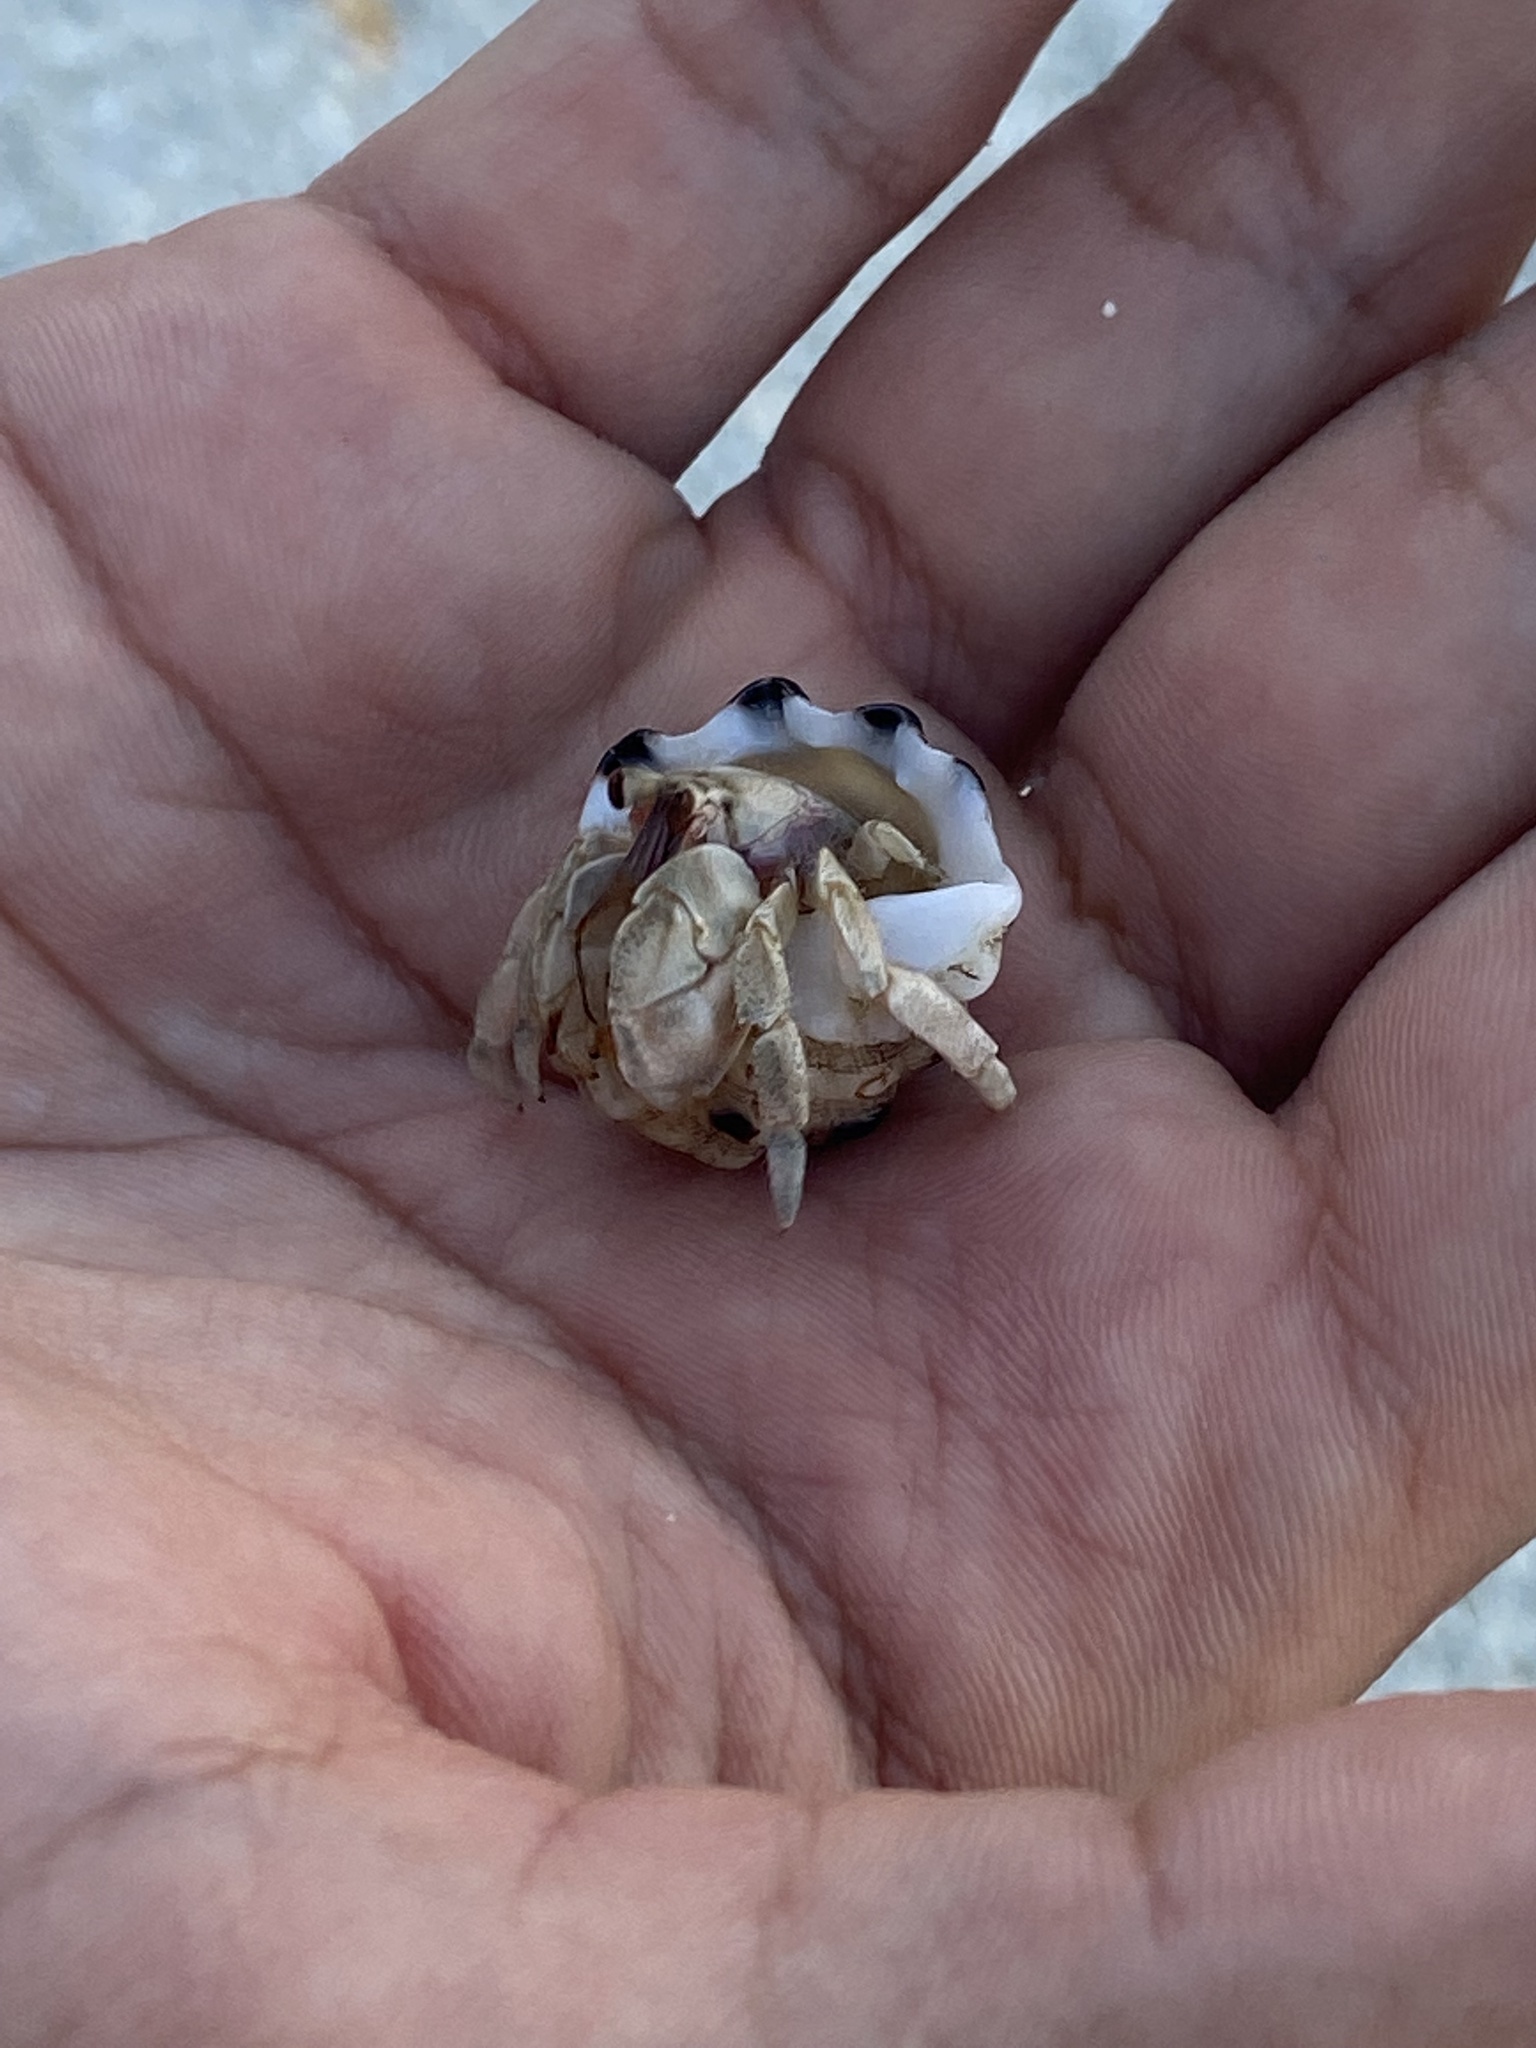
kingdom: Animalia
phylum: Arthropoda
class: Malacostraca
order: Decapoda
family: Coenobitidae
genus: Coenobita
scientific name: Coenobita rugosus
